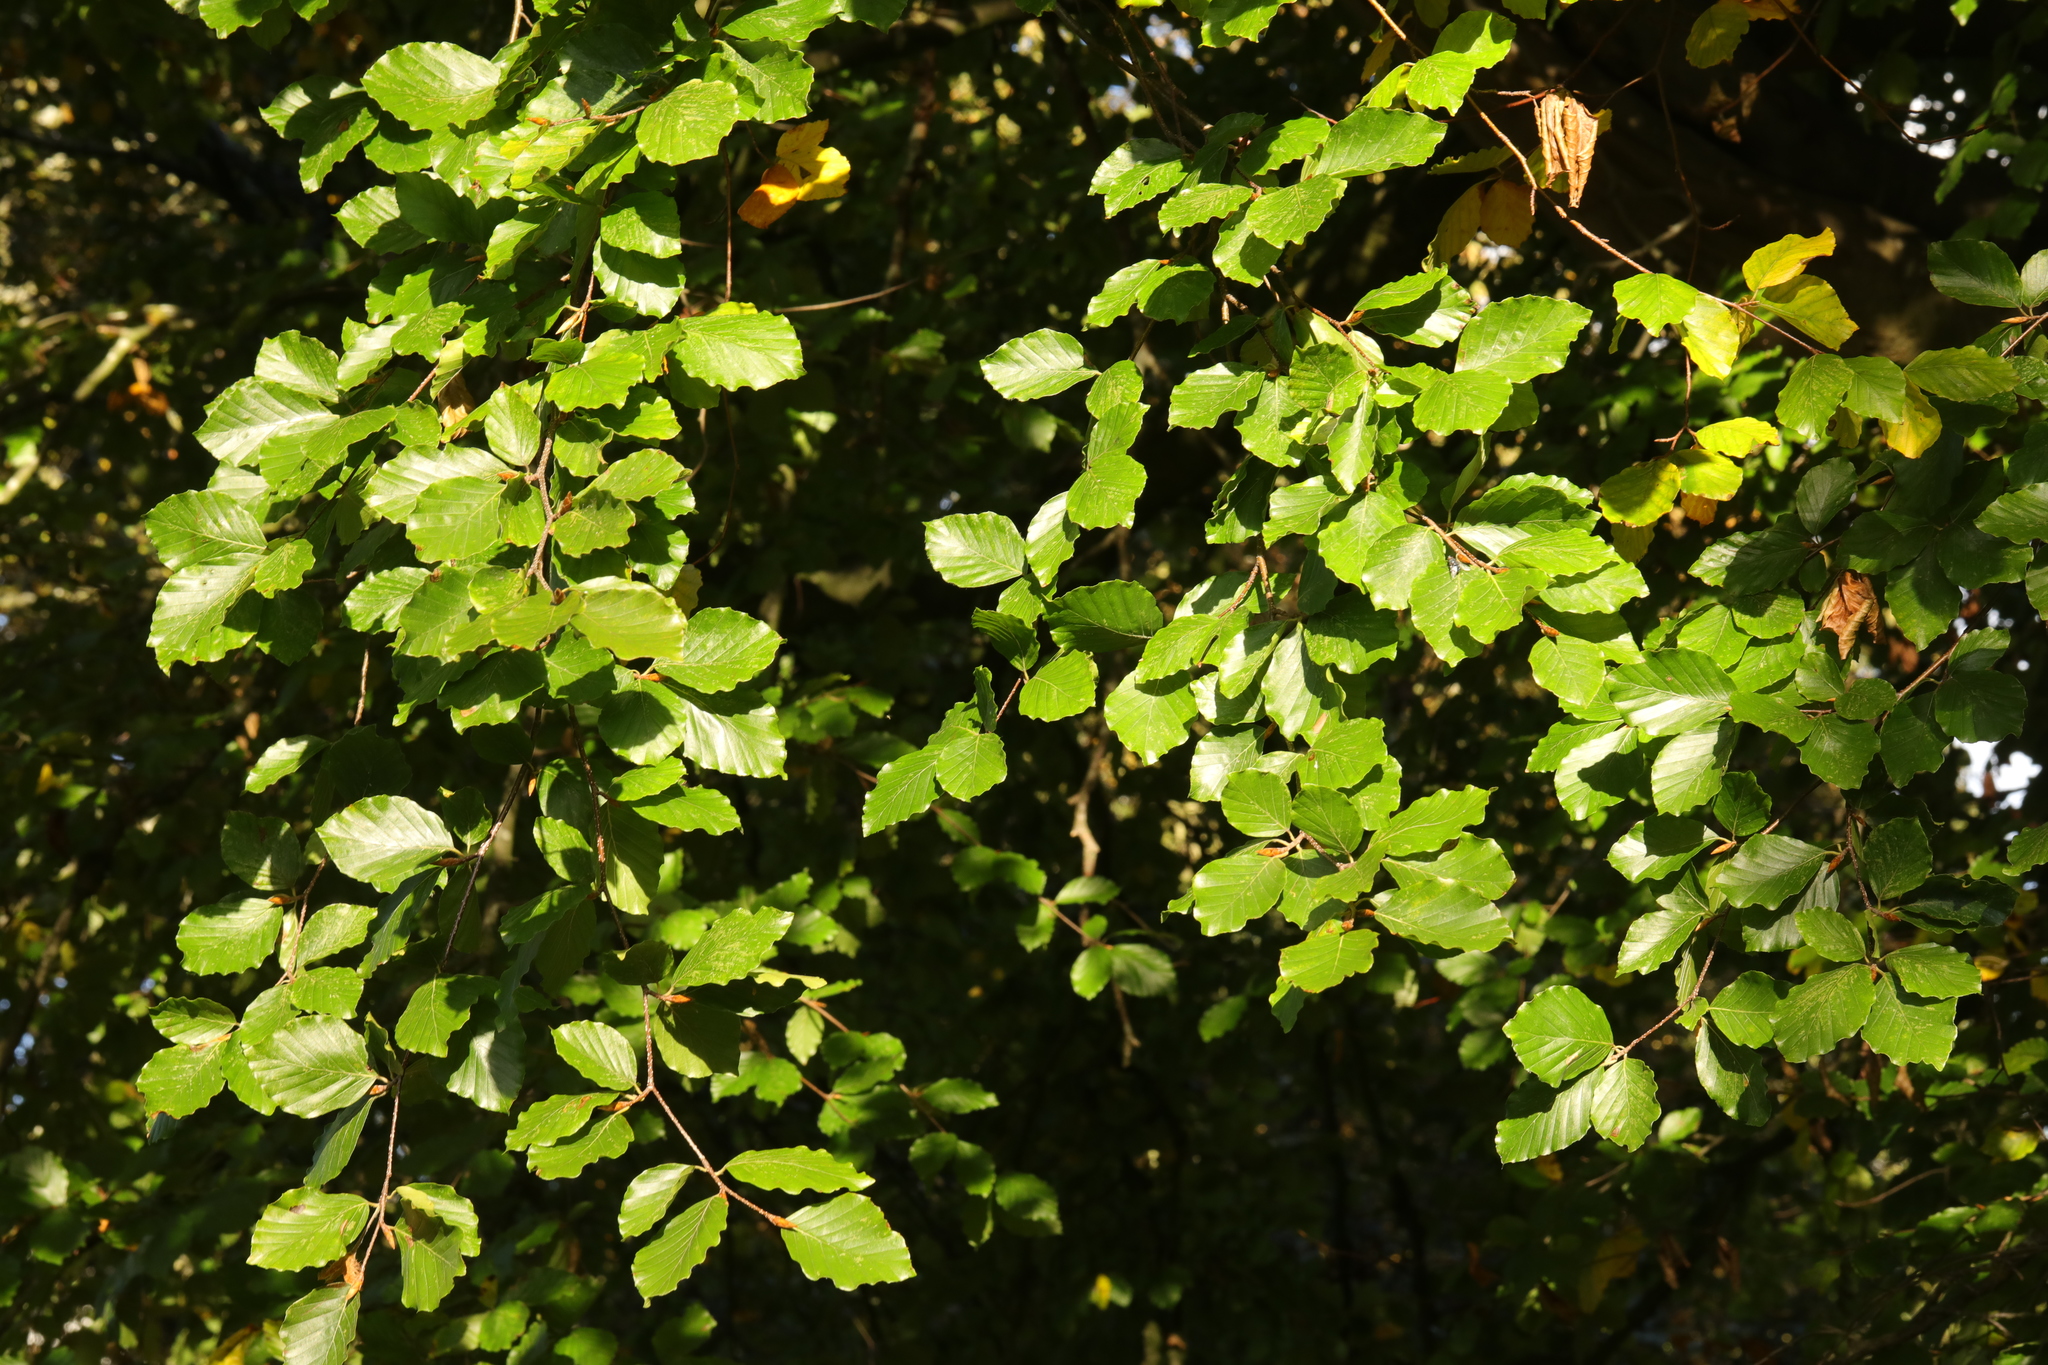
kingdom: Plantae
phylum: Tracheophyta
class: Magnoliopsida
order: Fagales
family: Fagaceae
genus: Fagus
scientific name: Fagus sylvatica
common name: Beech
